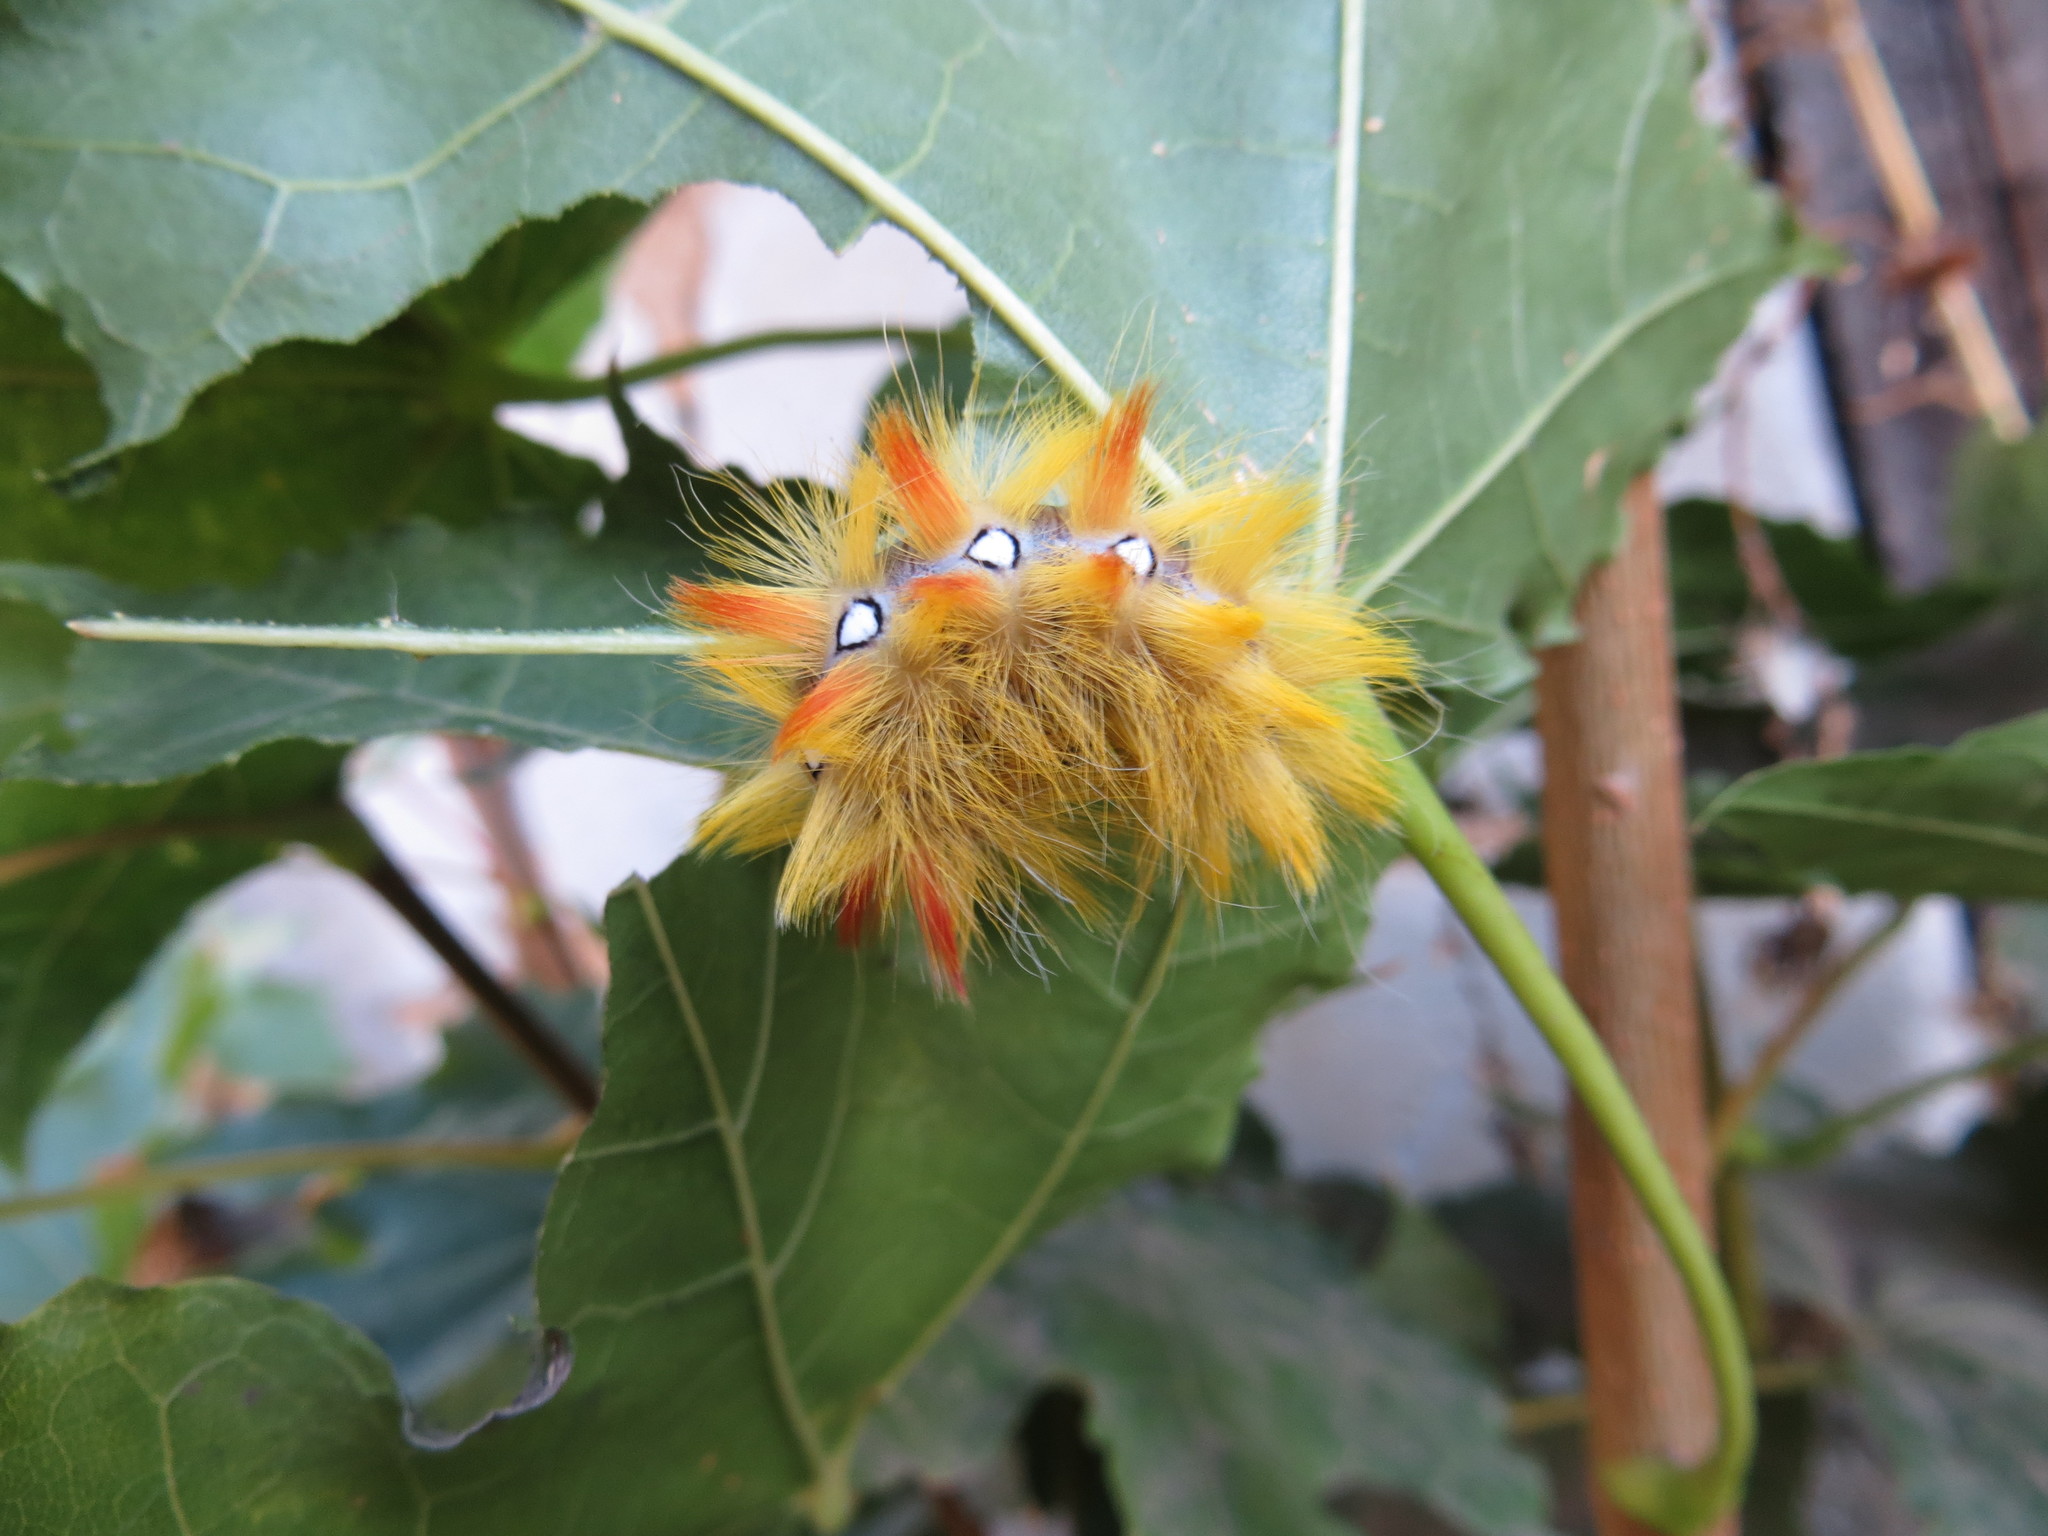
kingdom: Animalia
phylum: Arthropoda
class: Insecta
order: Lepidoptera
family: Noctuidae
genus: Acronicta
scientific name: Acronicta aceris
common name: Sycamore
